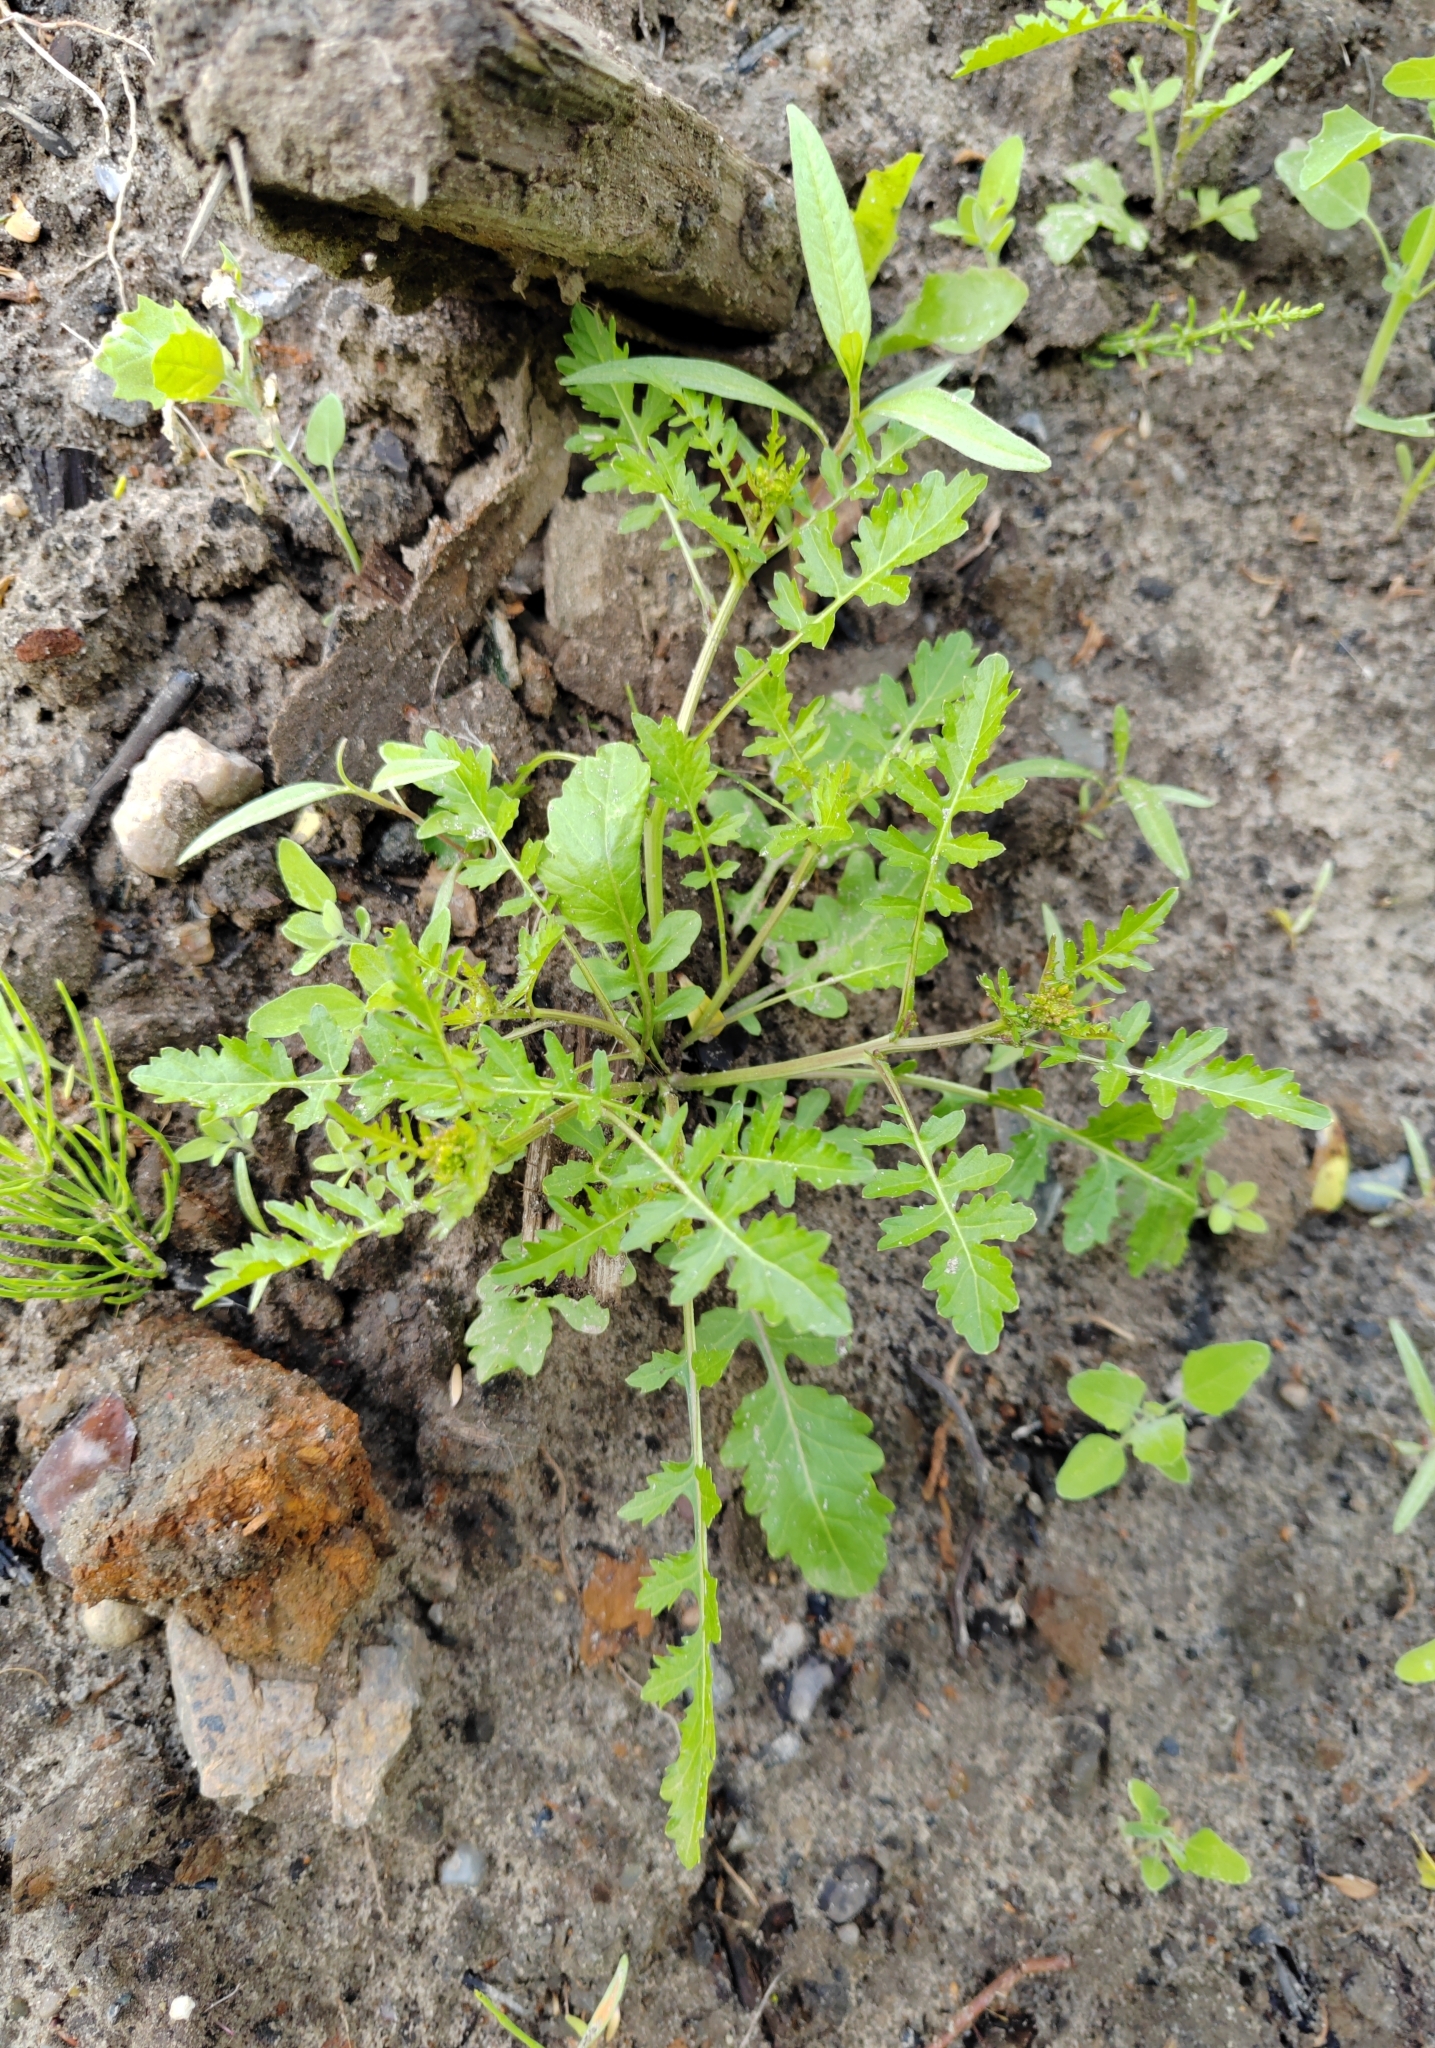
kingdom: Plantae
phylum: Tracheophyta
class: Magnoliopsida
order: Brassicales
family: Brassicaceae
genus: Rorippa
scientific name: Rorippa palustris
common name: Marsh yellow-cress
